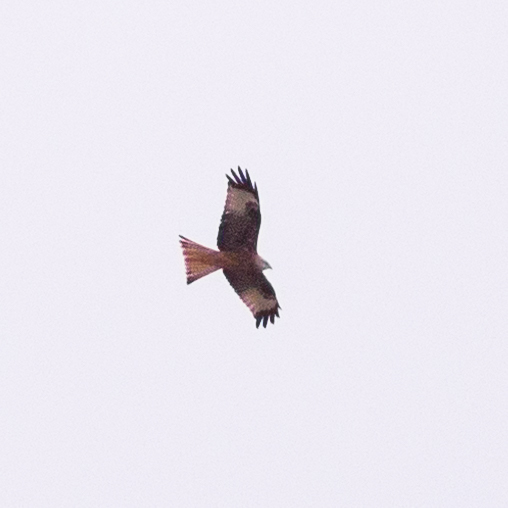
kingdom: Animalia
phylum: Chordata
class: Aves
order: Accipitriformes
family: Accipitridae
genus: Milvus
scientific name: Milvus milvus
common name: Red kite
